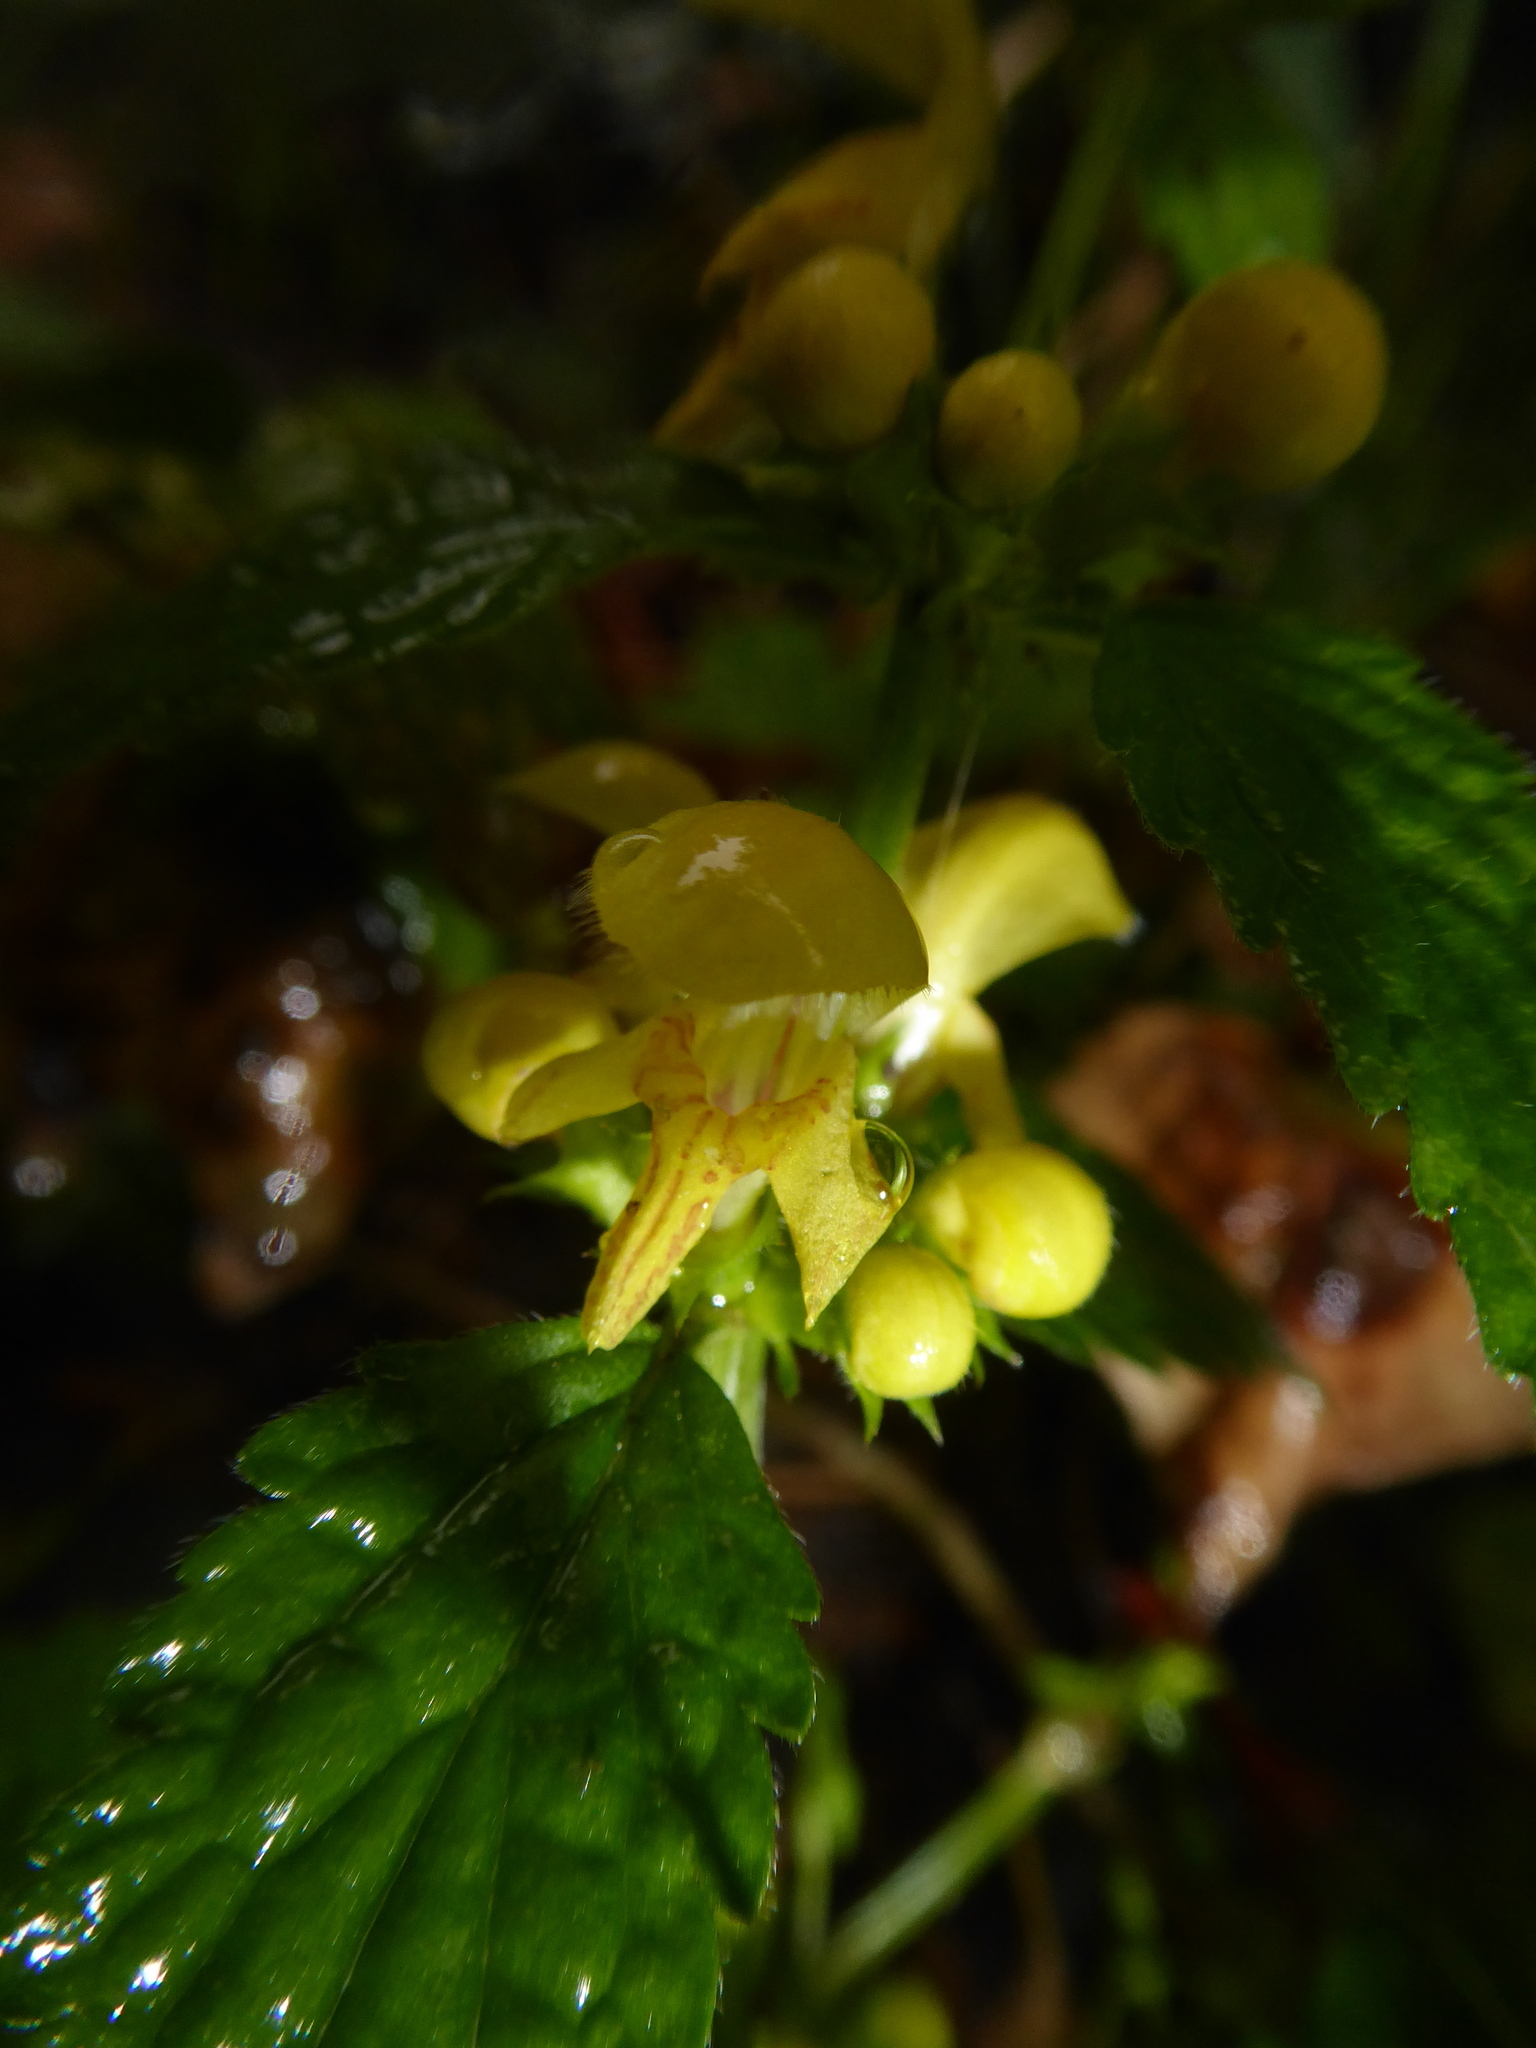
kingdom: Plantae
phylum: Tracheophyta
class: Magnoliopsida
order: Lamiales
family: Lamiaceae
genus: Lamium
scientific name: Lamium galeobdolon
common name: Yellow archangel
